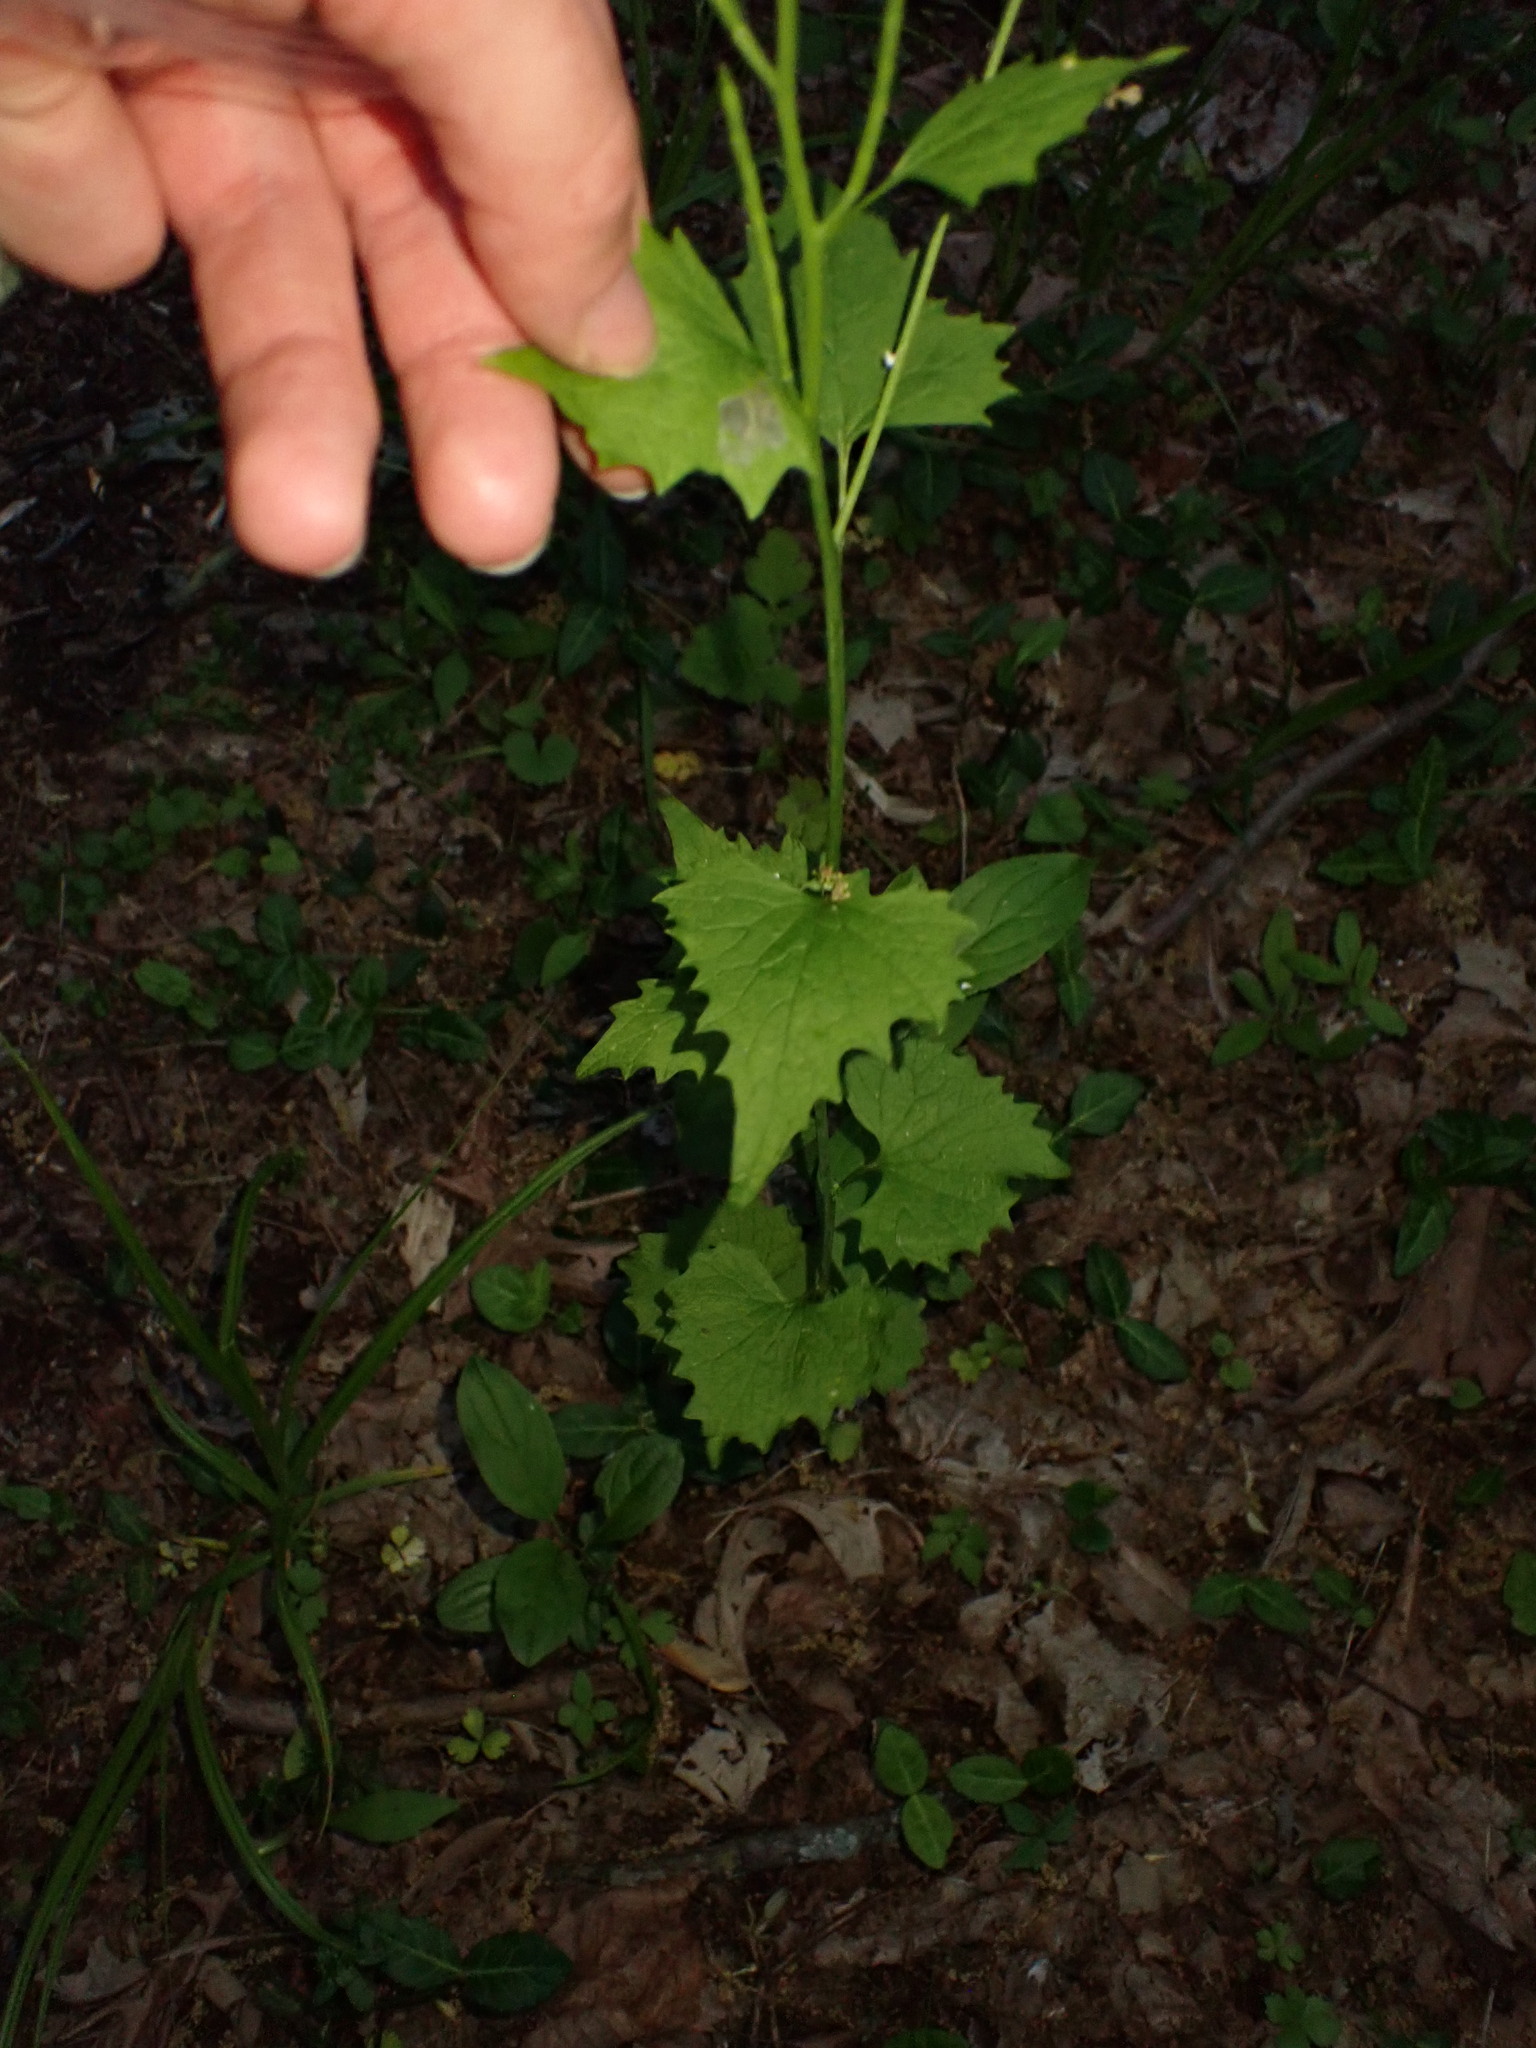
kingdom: Plantae
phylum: Tracheophyta
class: Magnoliopsida
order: Brassicales
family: Brassicaceae
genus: Alliaria
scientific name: Alliaria petiolata
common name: Garlic mustard
